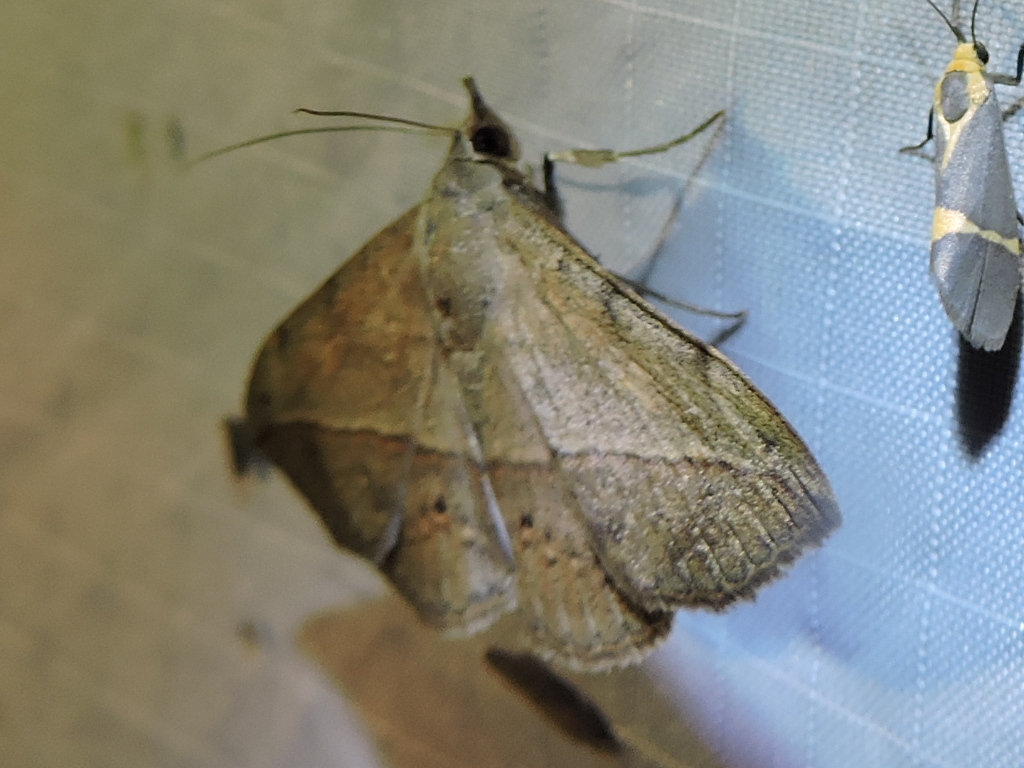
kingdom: Animalia
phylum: Arthropoda
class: Insecta
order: Lepidoptera
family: Erebidae
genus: Anticarsia
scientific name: Anticarsia gemmatalis
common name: Cutworm moth
